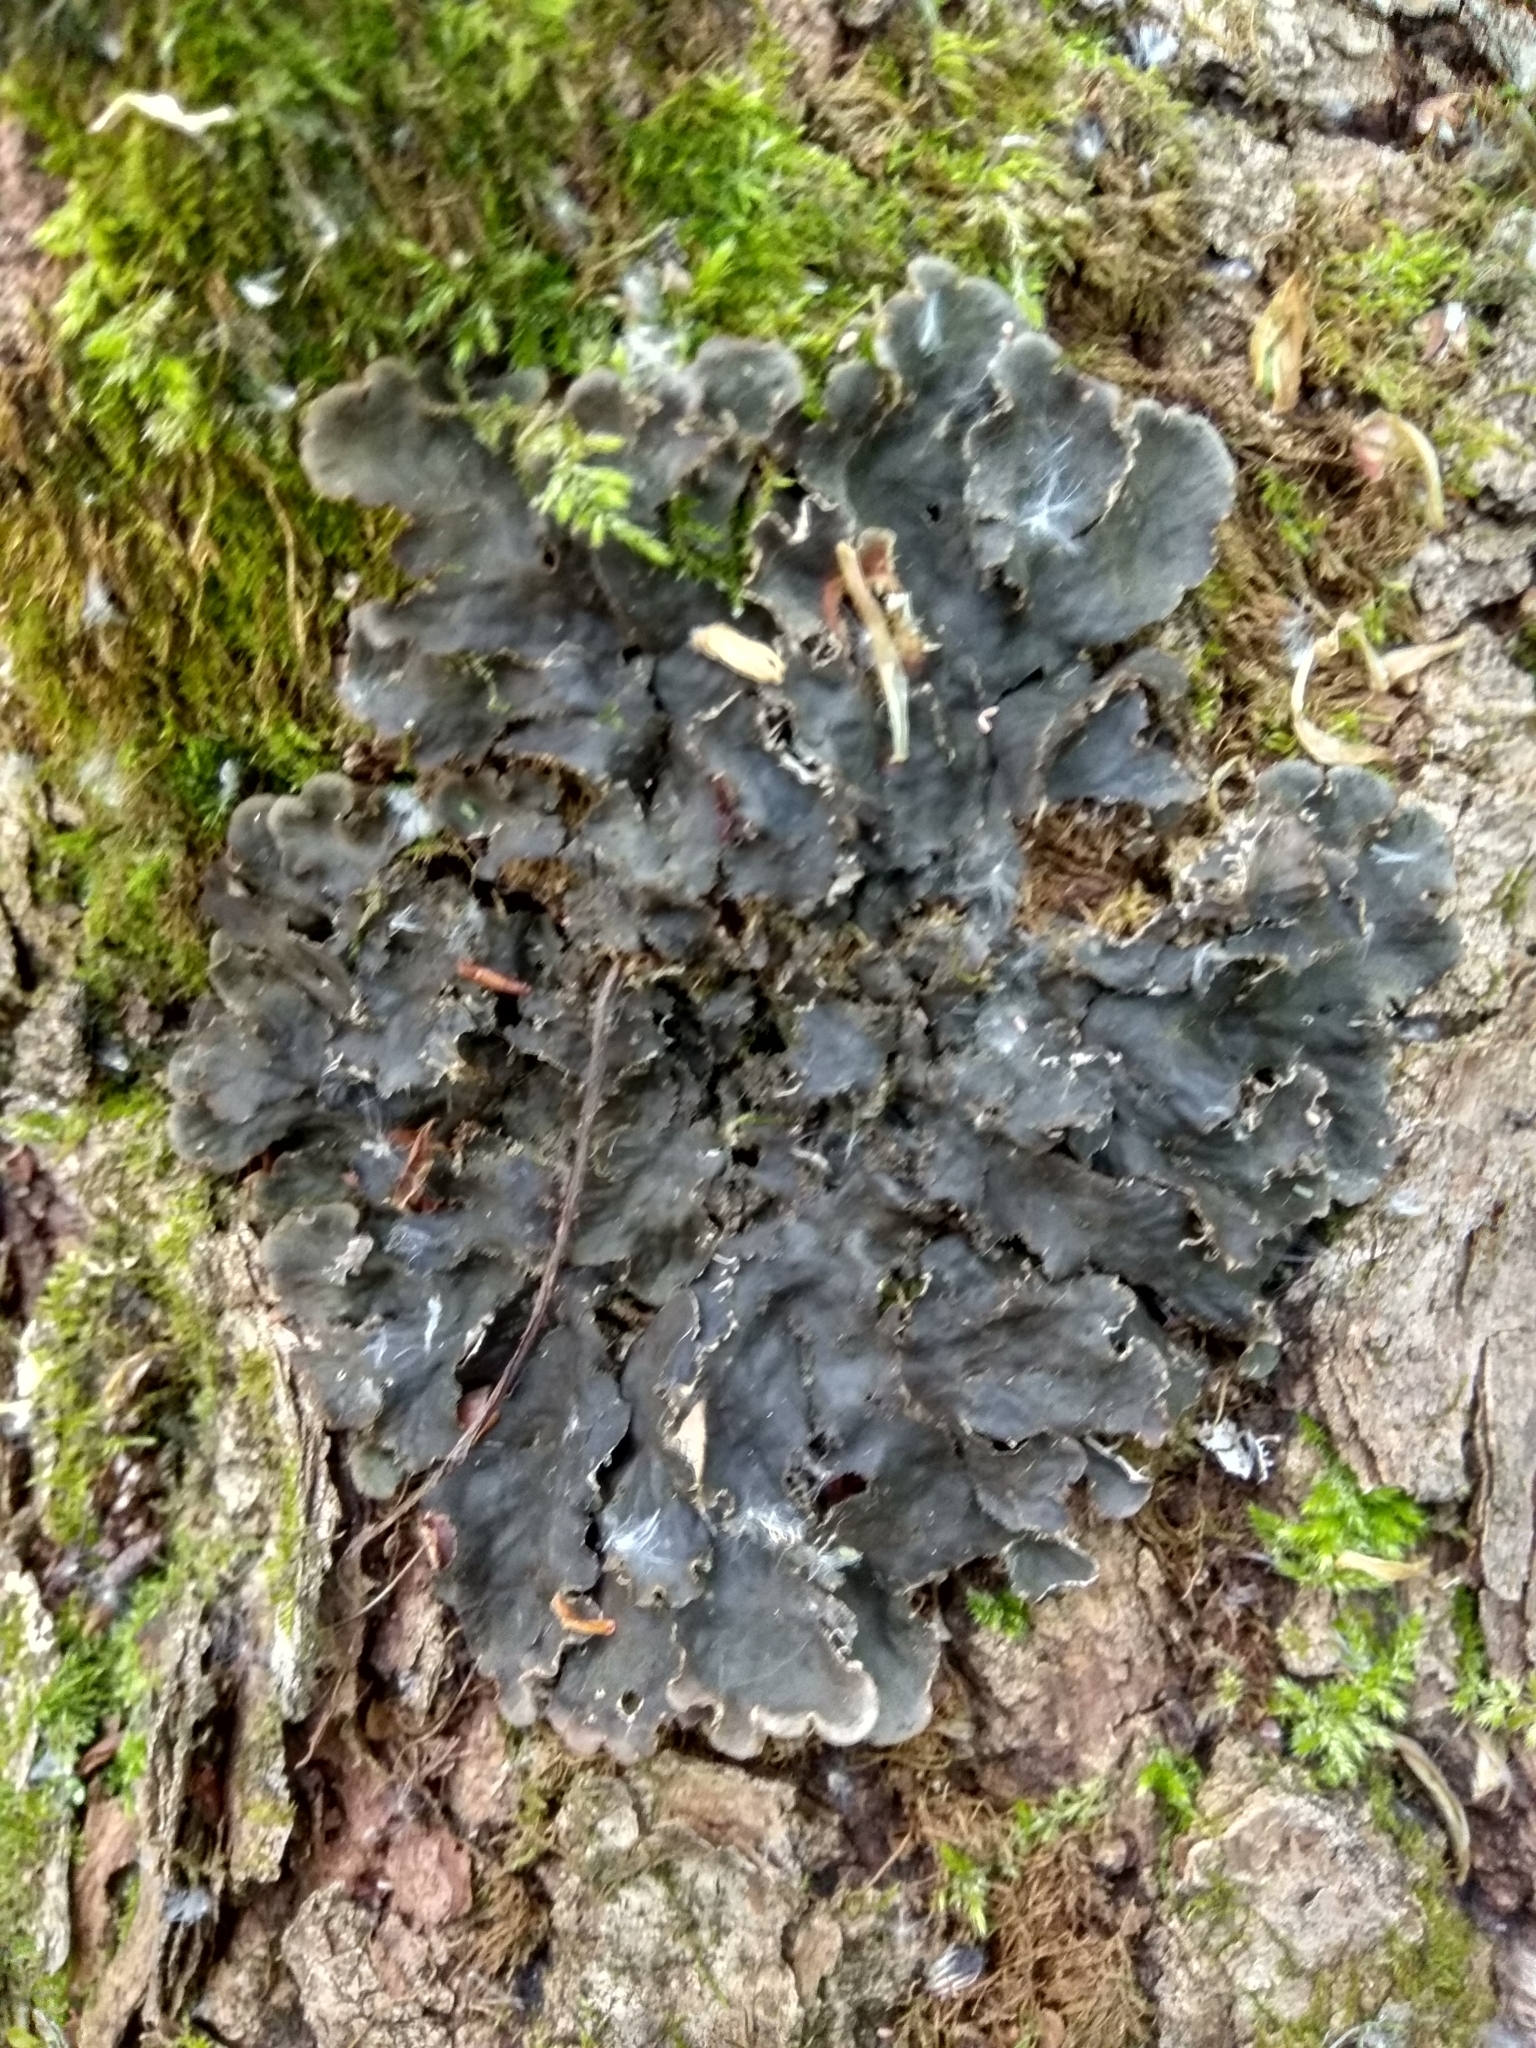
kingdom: Fungi
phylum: Ascomycota
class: Lecanoromycetes
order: Peltigerales
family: Peltigeraceae
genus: Peltigera
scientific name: Peltigera praetextata
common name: Scaly dog-lichen
